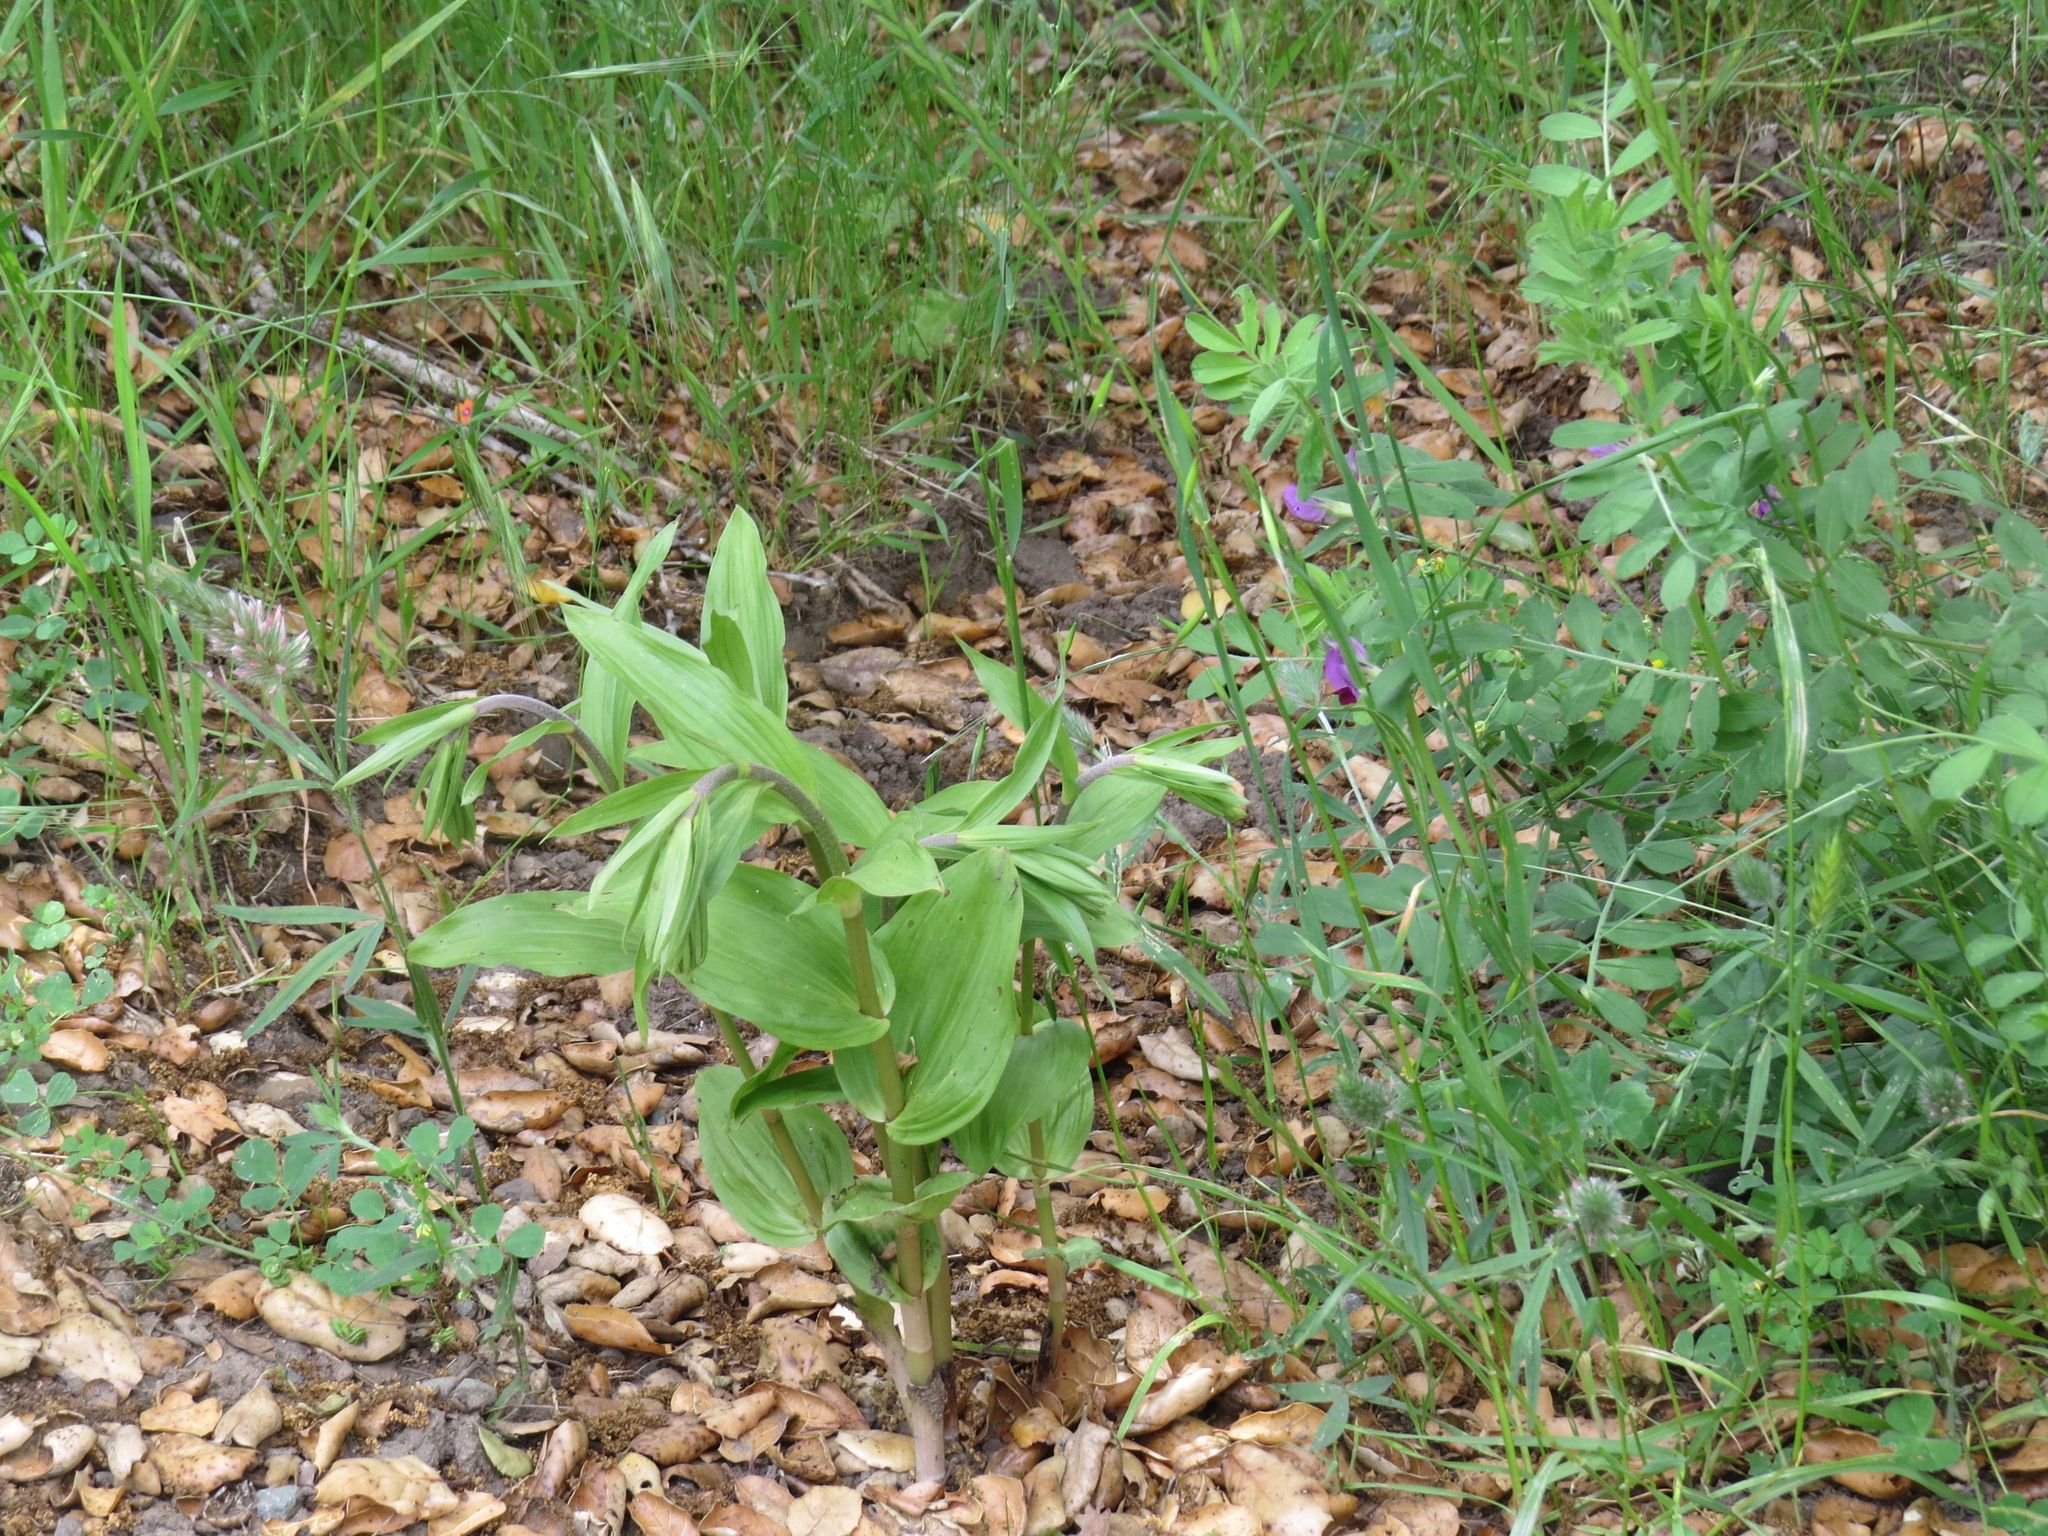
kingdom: Plantae
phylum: Tracheophyta
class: Liliopsida
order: Asparagales
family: Orchidaceae
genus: Epipactis
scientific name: Epipactis helleborine
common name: Broad-leaved helleborine
